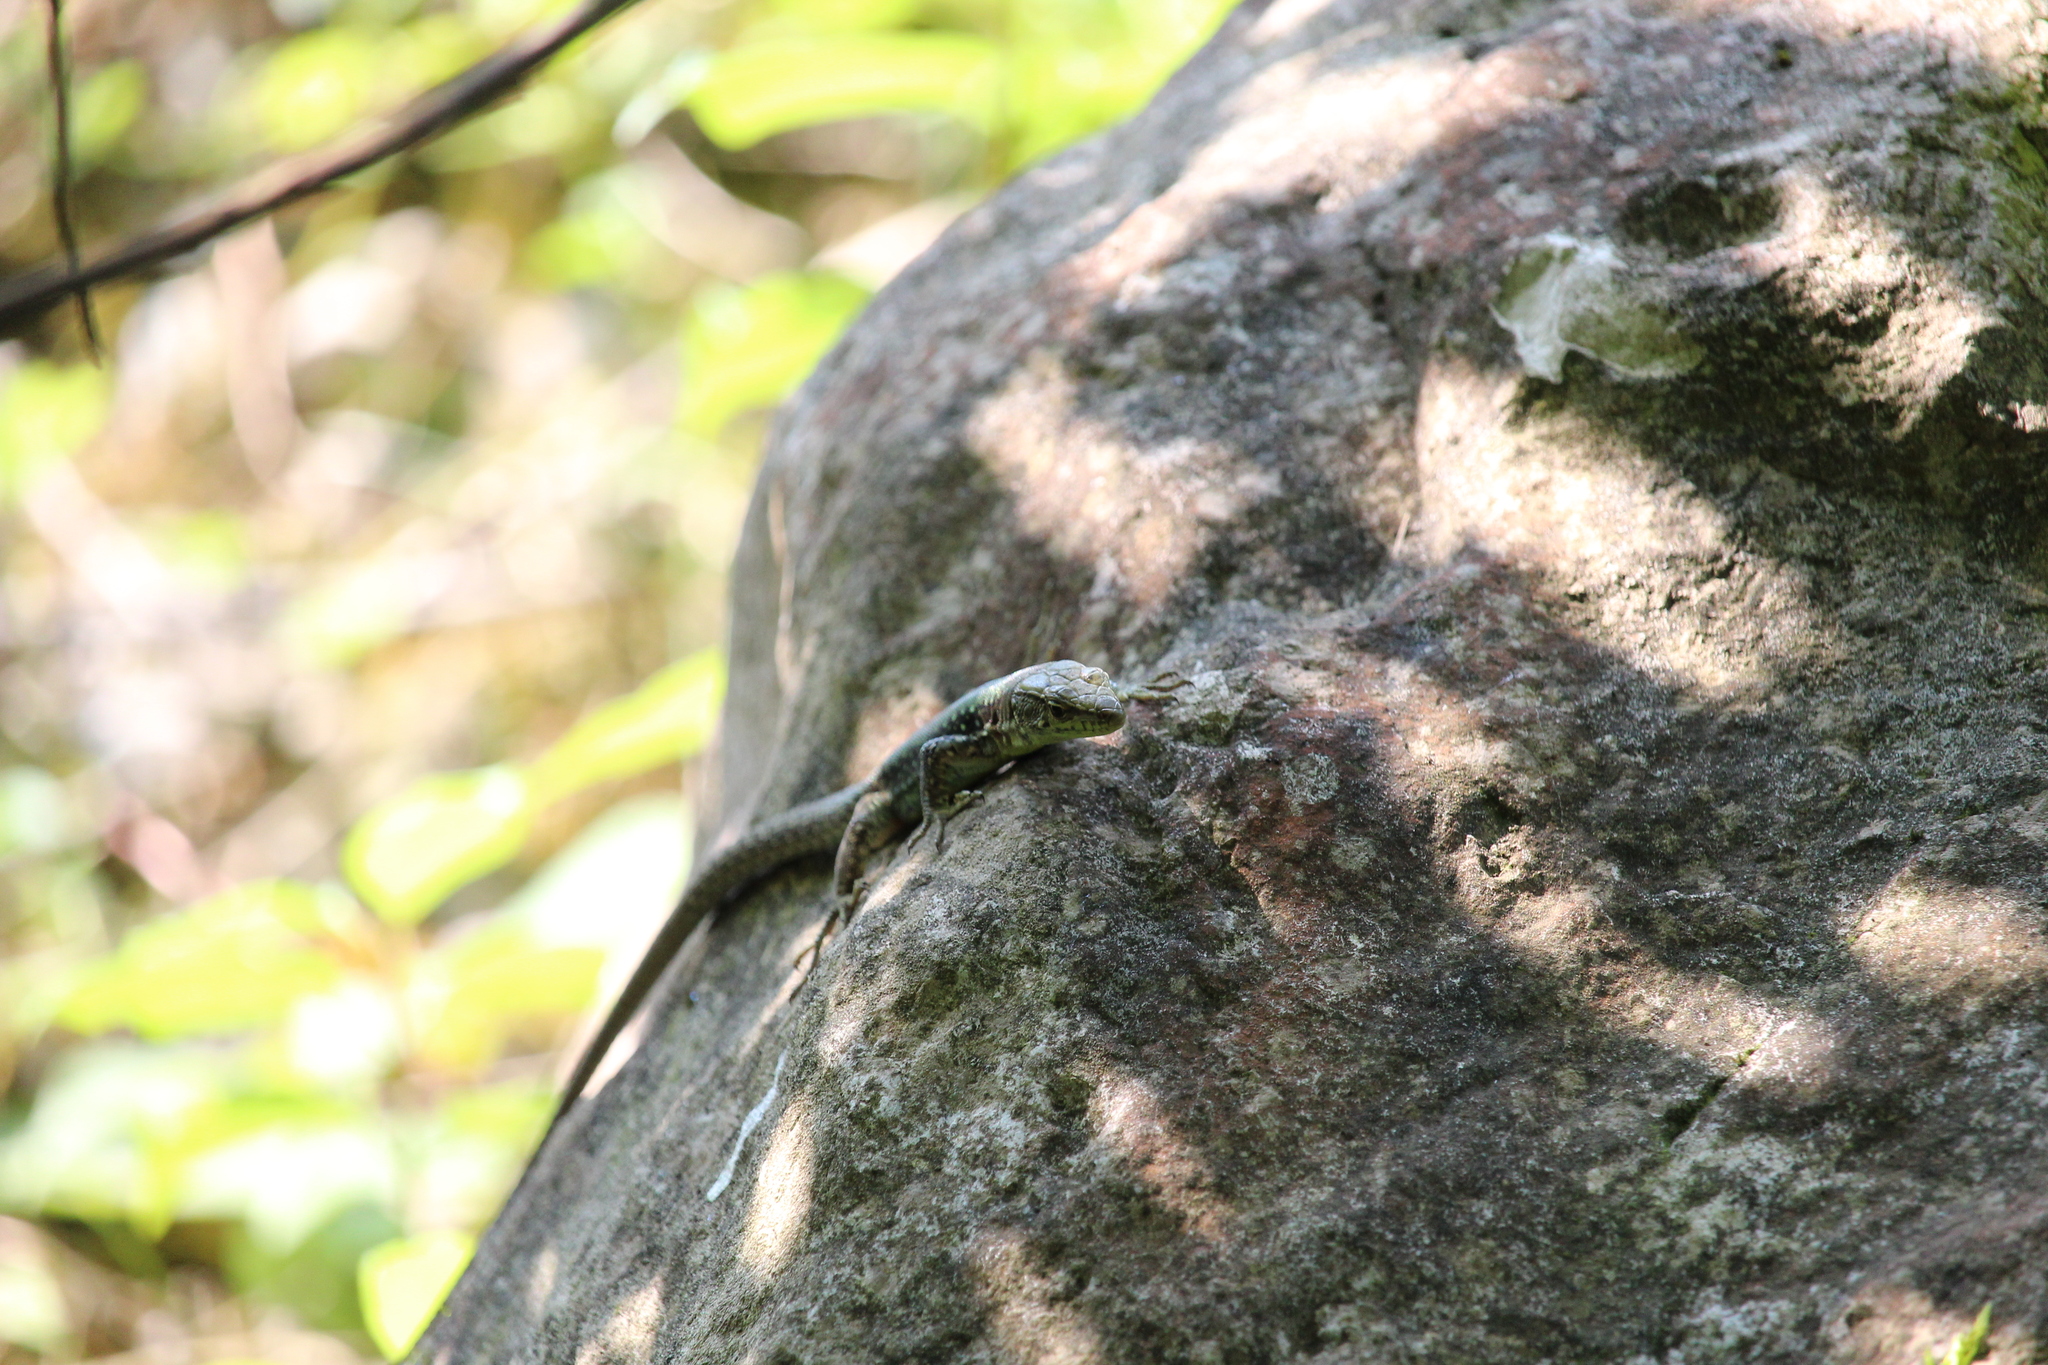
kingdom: Animalia
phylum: Chordata
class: Squamata
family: Lacertidae
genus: Darevskia
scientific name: Darevskia brauneri
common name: Brauner's rock lizard
